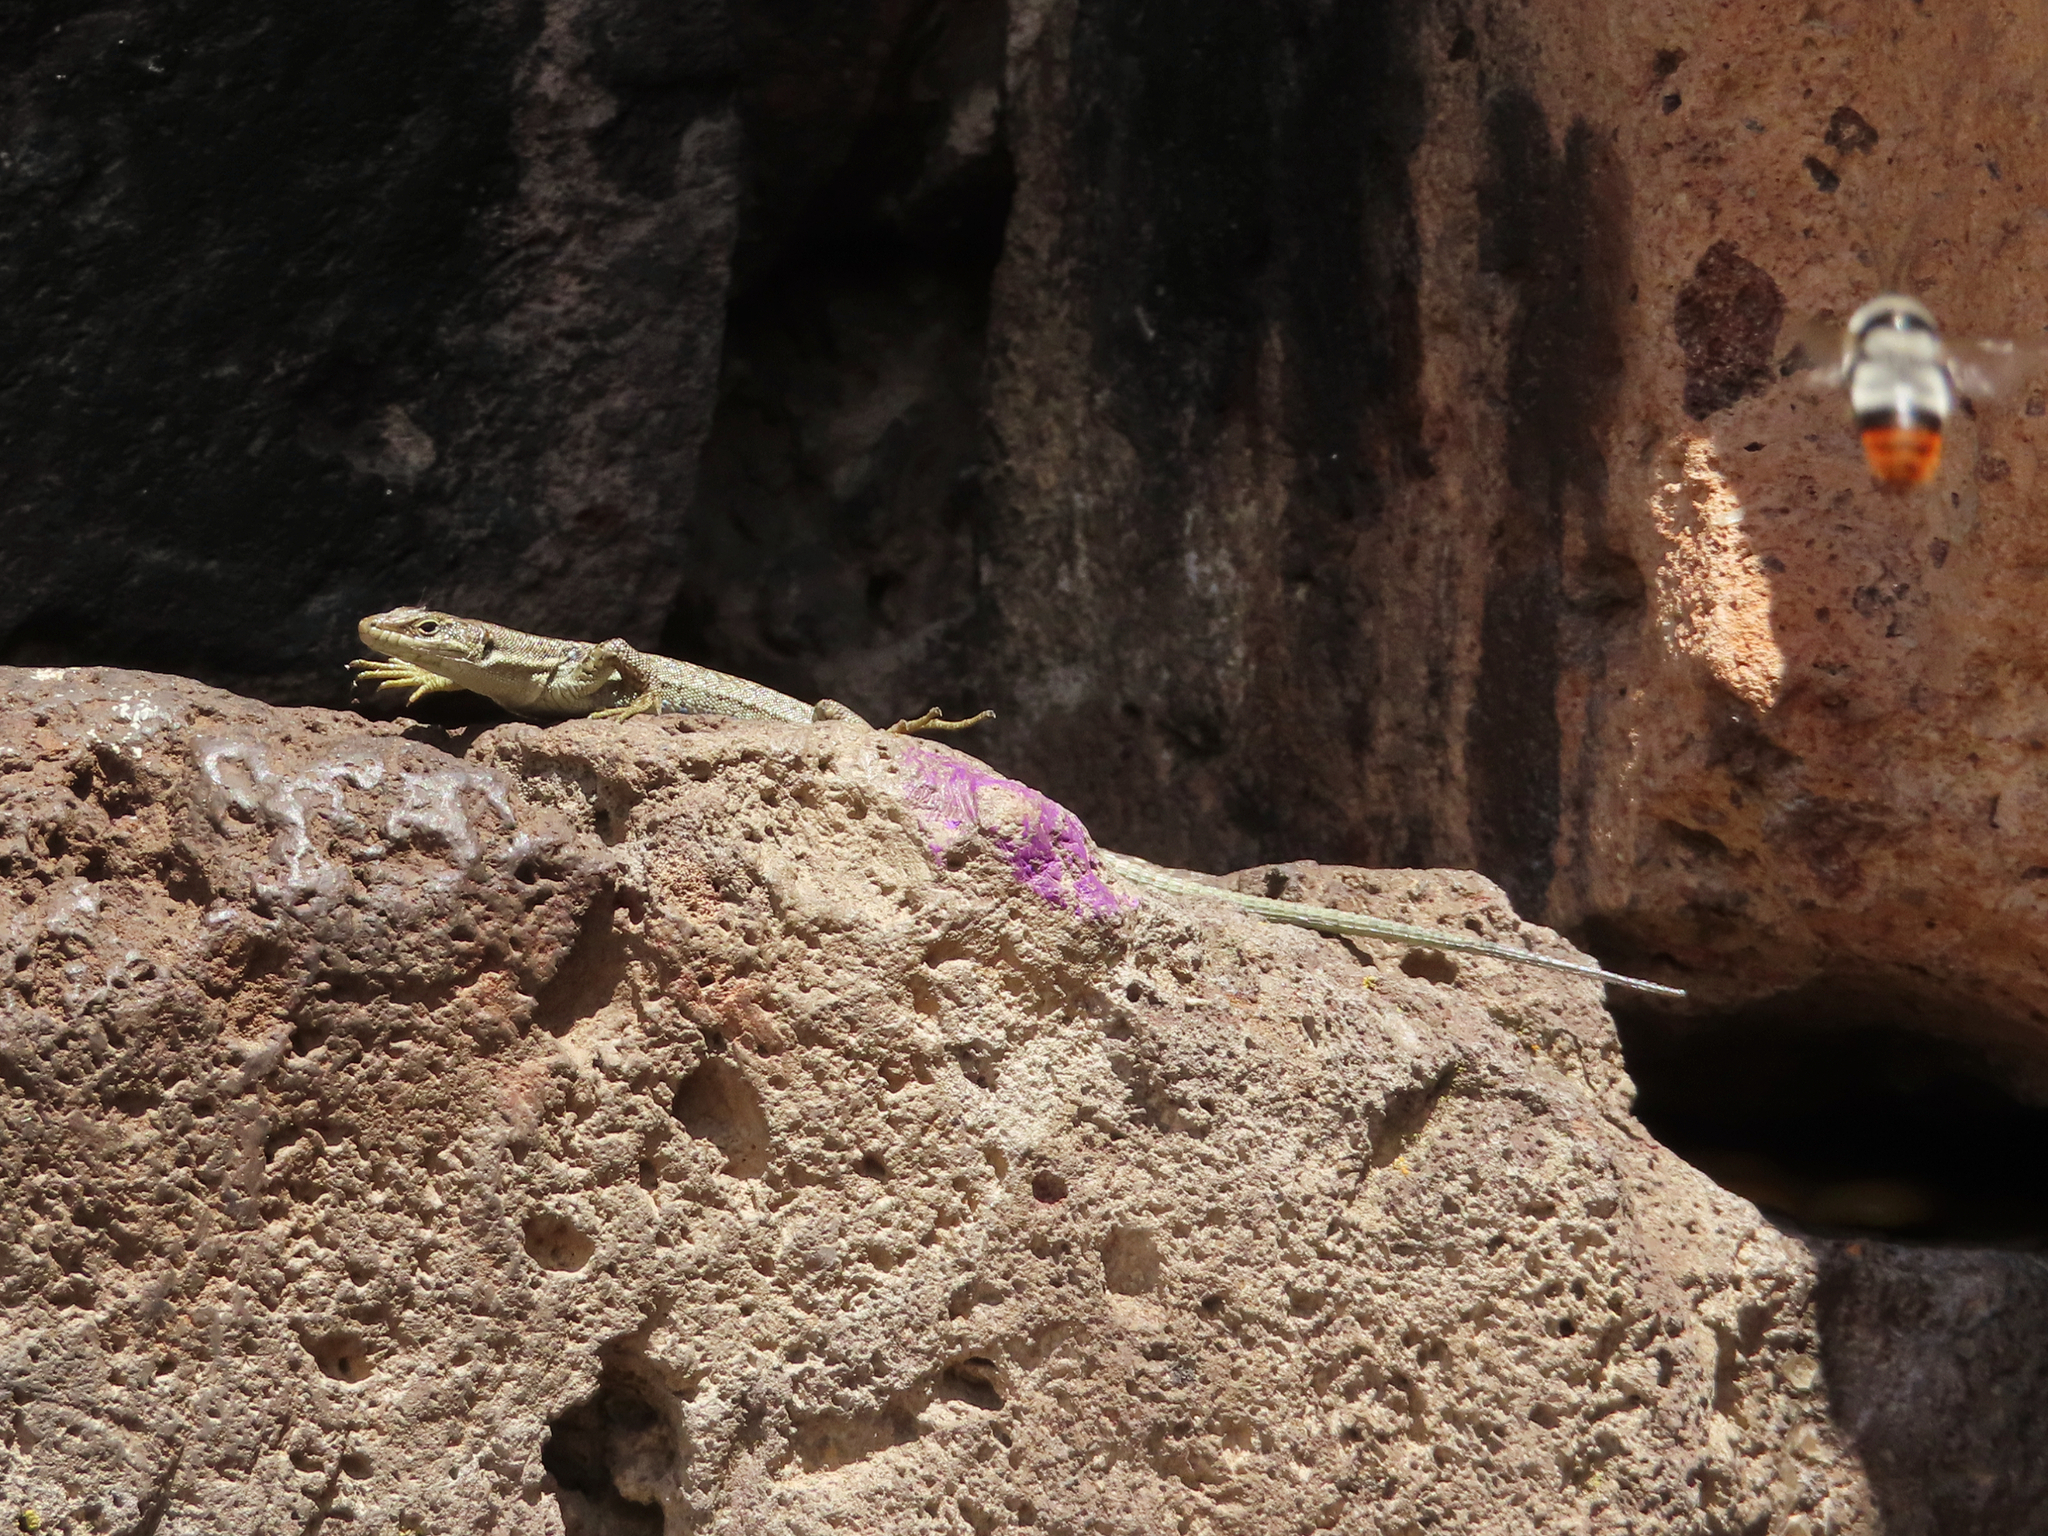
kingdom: Animalia
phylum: Chordata
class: Squamata
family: Lacertidae
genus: Darevskia
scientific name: Darevskia
